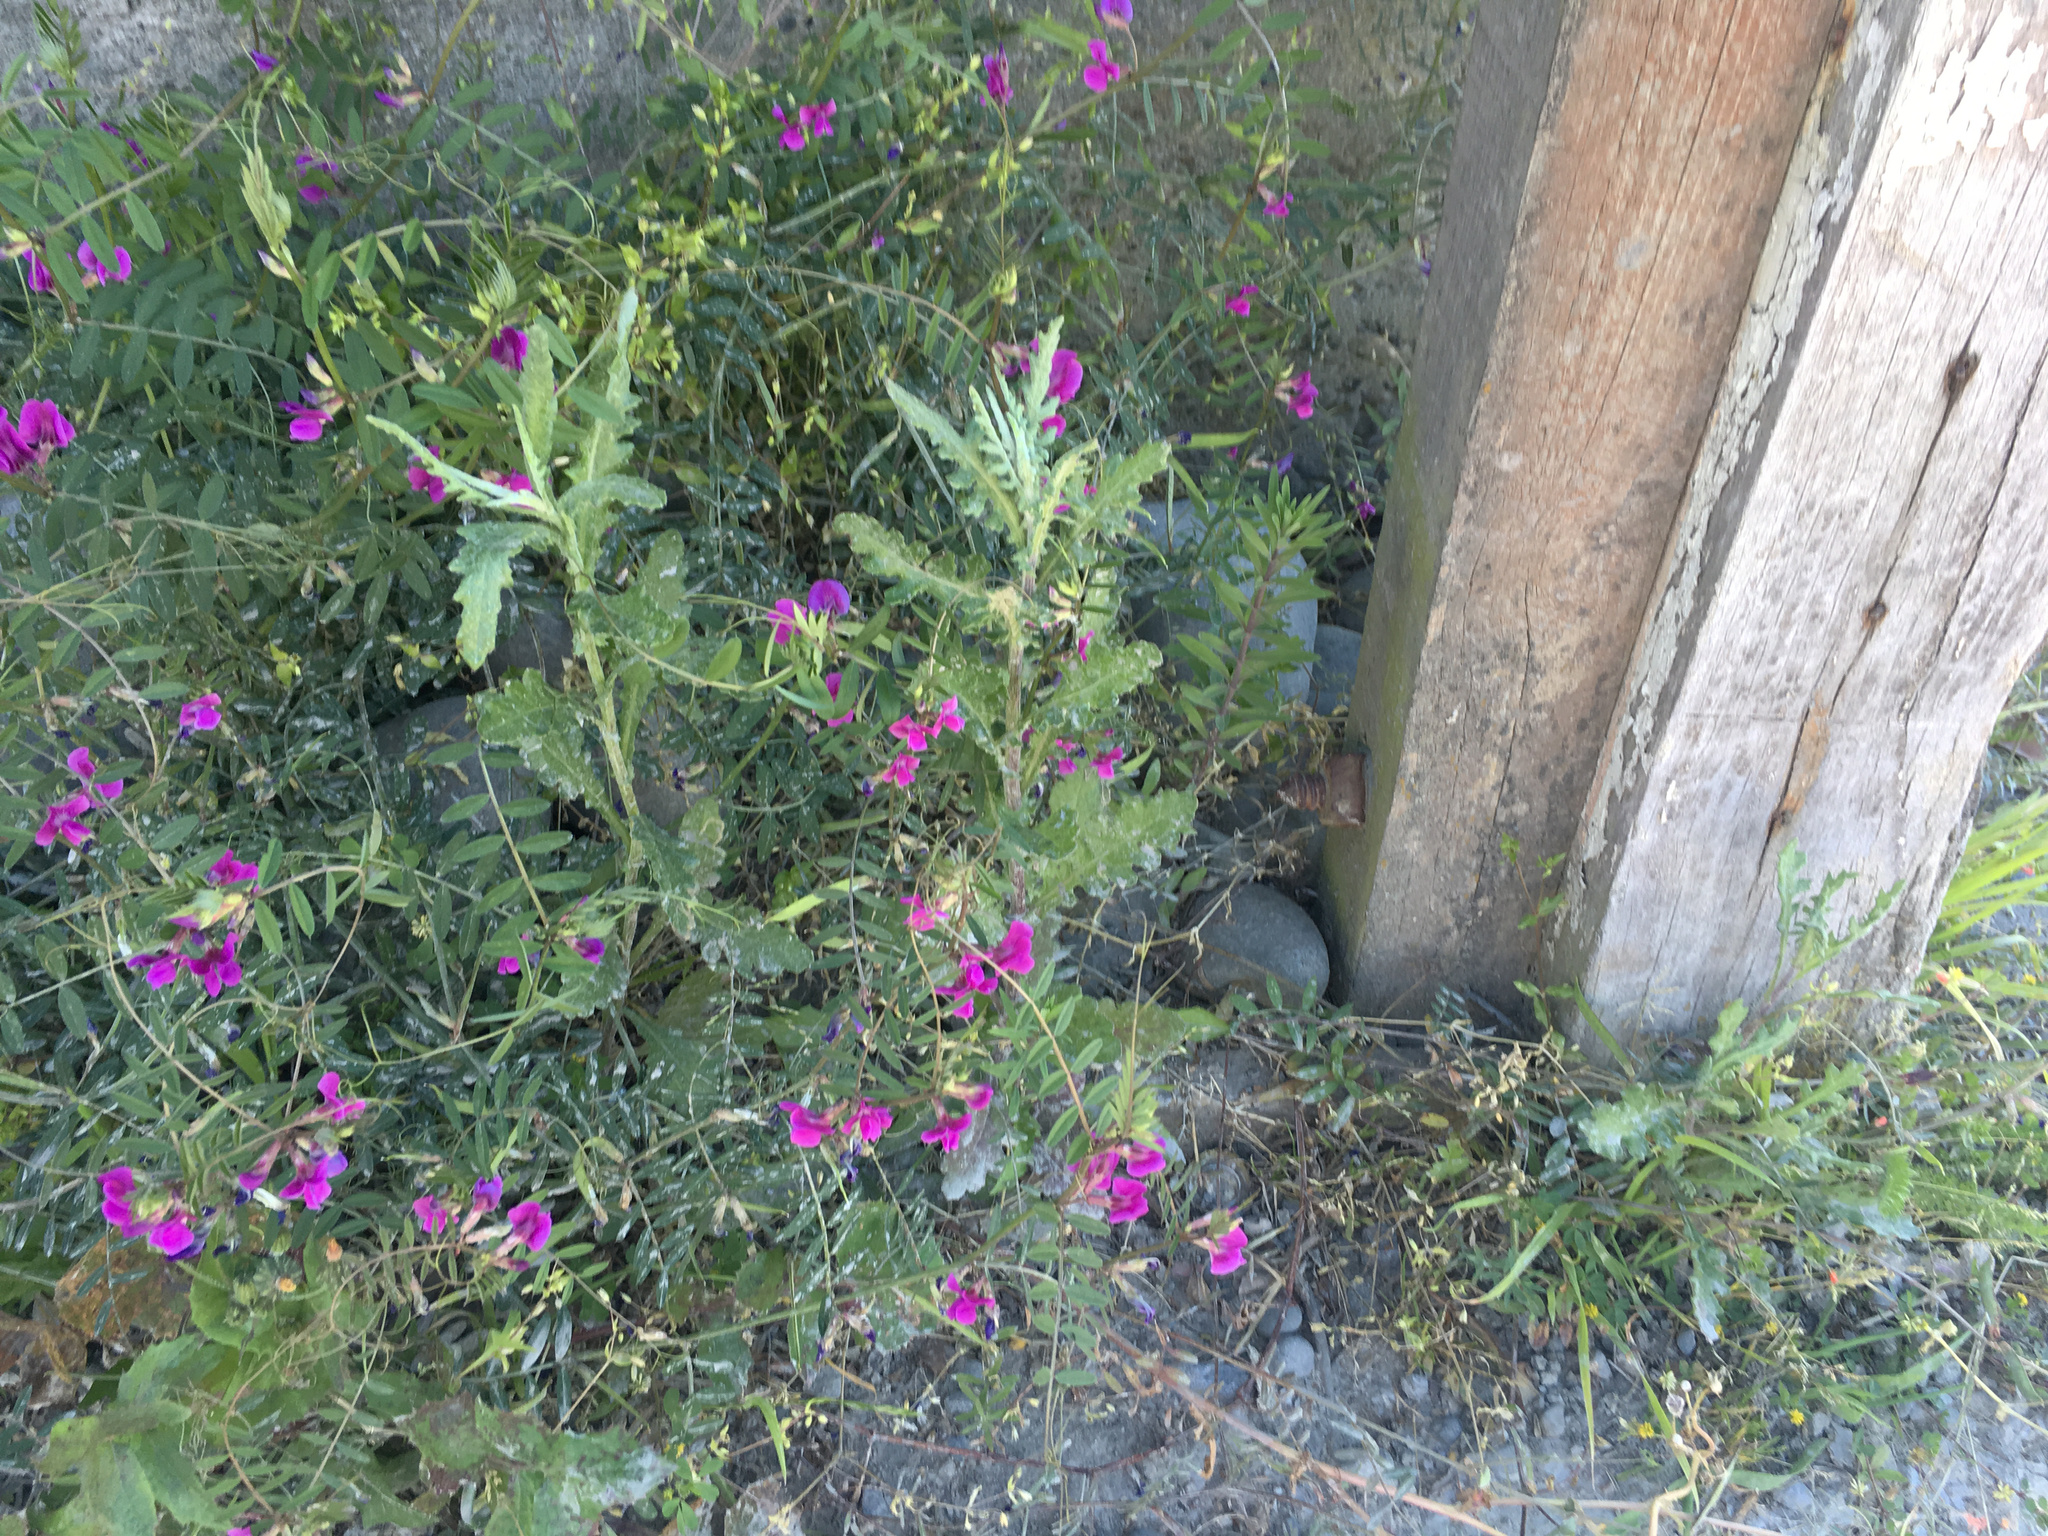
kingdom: Plantae
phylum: Tracheophyta
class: Magnoliopsida
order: Asterales
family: Asteraceae
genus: Senecio
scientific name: Senecio glomeratus
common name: Cutleaf burnweed
